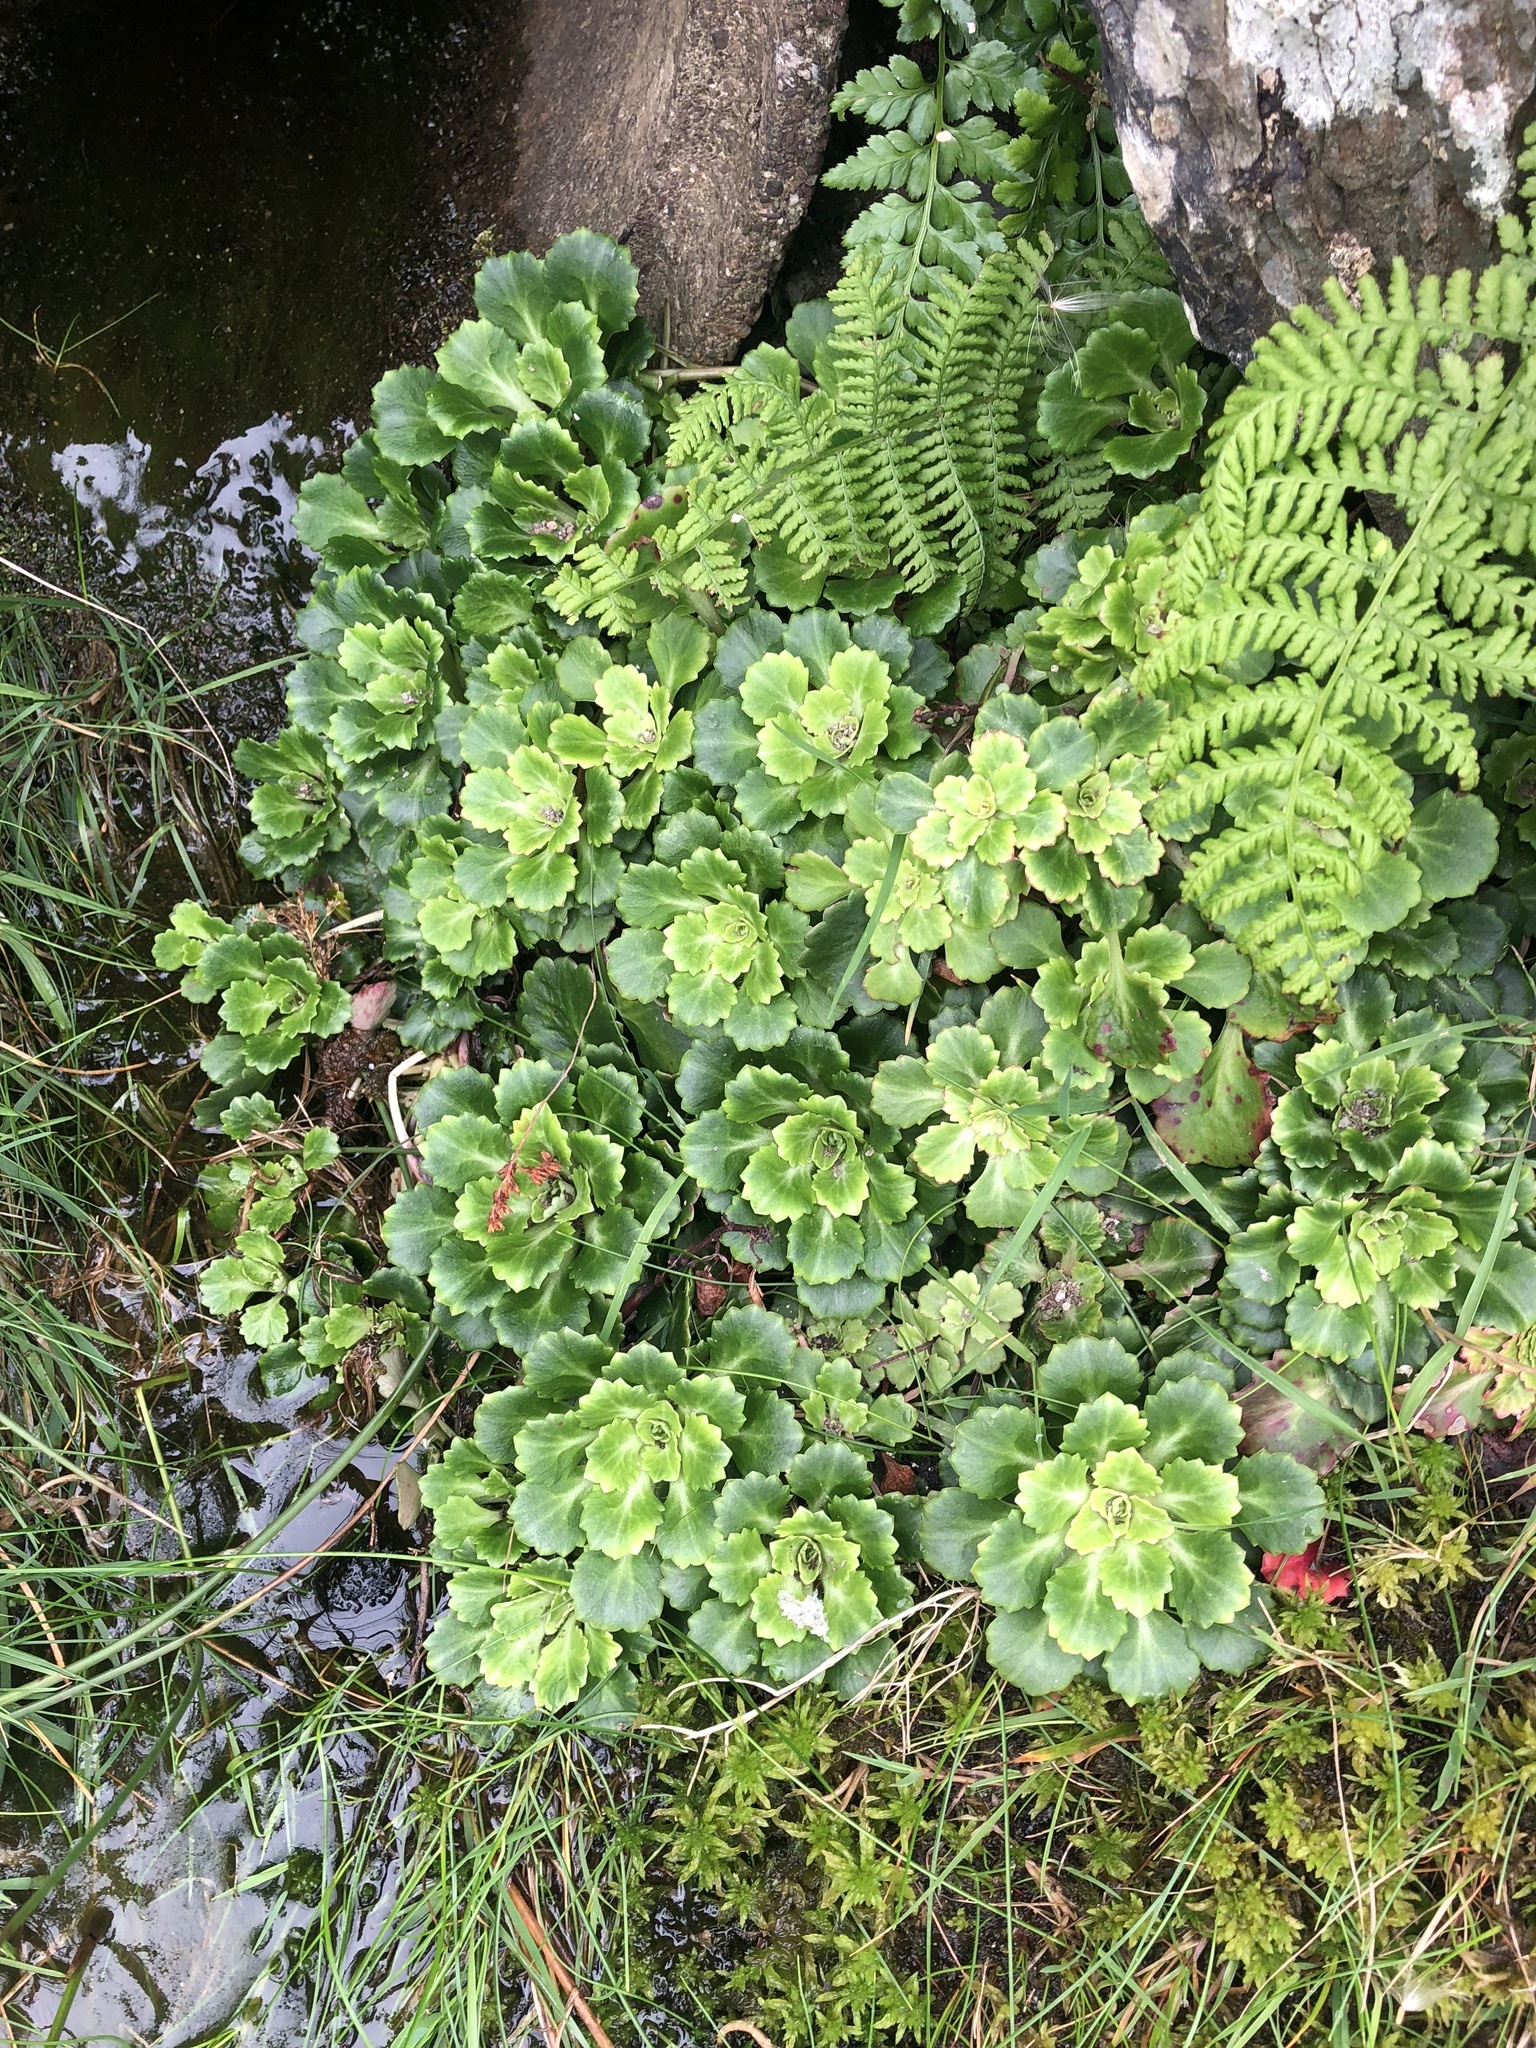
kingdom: Plantae
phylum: Tracheophyta
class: Magnoliopsida
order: Saxifragales
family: Saxifragaceae
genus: Saxifraga
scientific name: Saxifraga spathularis
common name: St patrick's-cabbage
